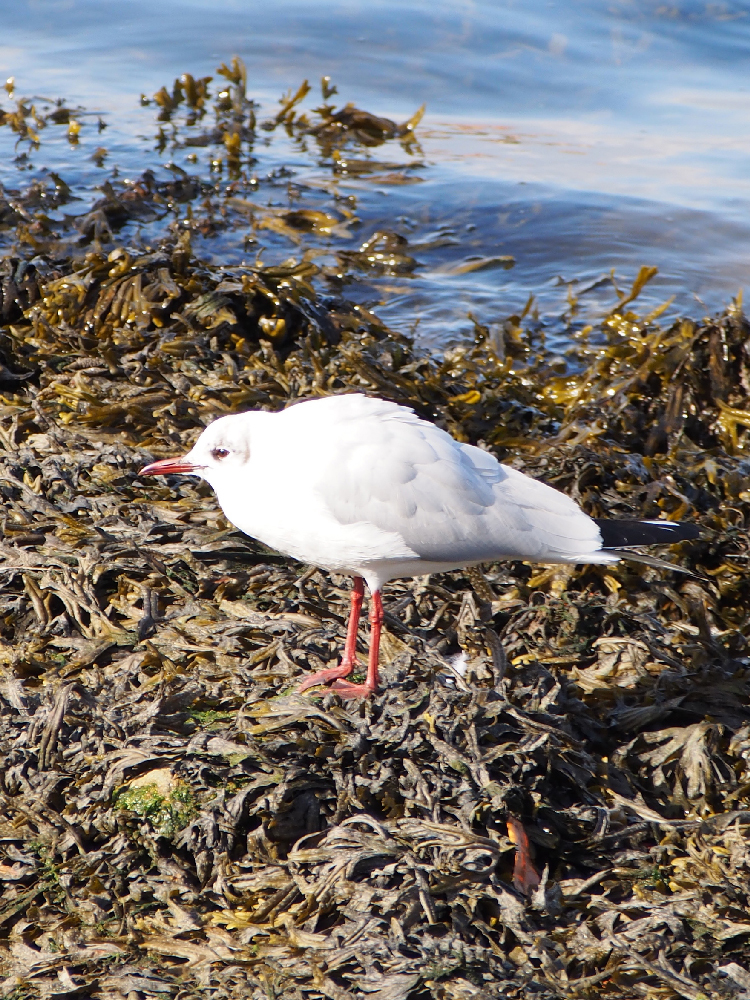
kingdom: Animalia
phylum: Chordata
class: Aves
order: Charadriiformes
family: Laridae
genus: Chroicocephalus
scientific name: Chroicocephalus ridibundus
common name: Black-headed gull
